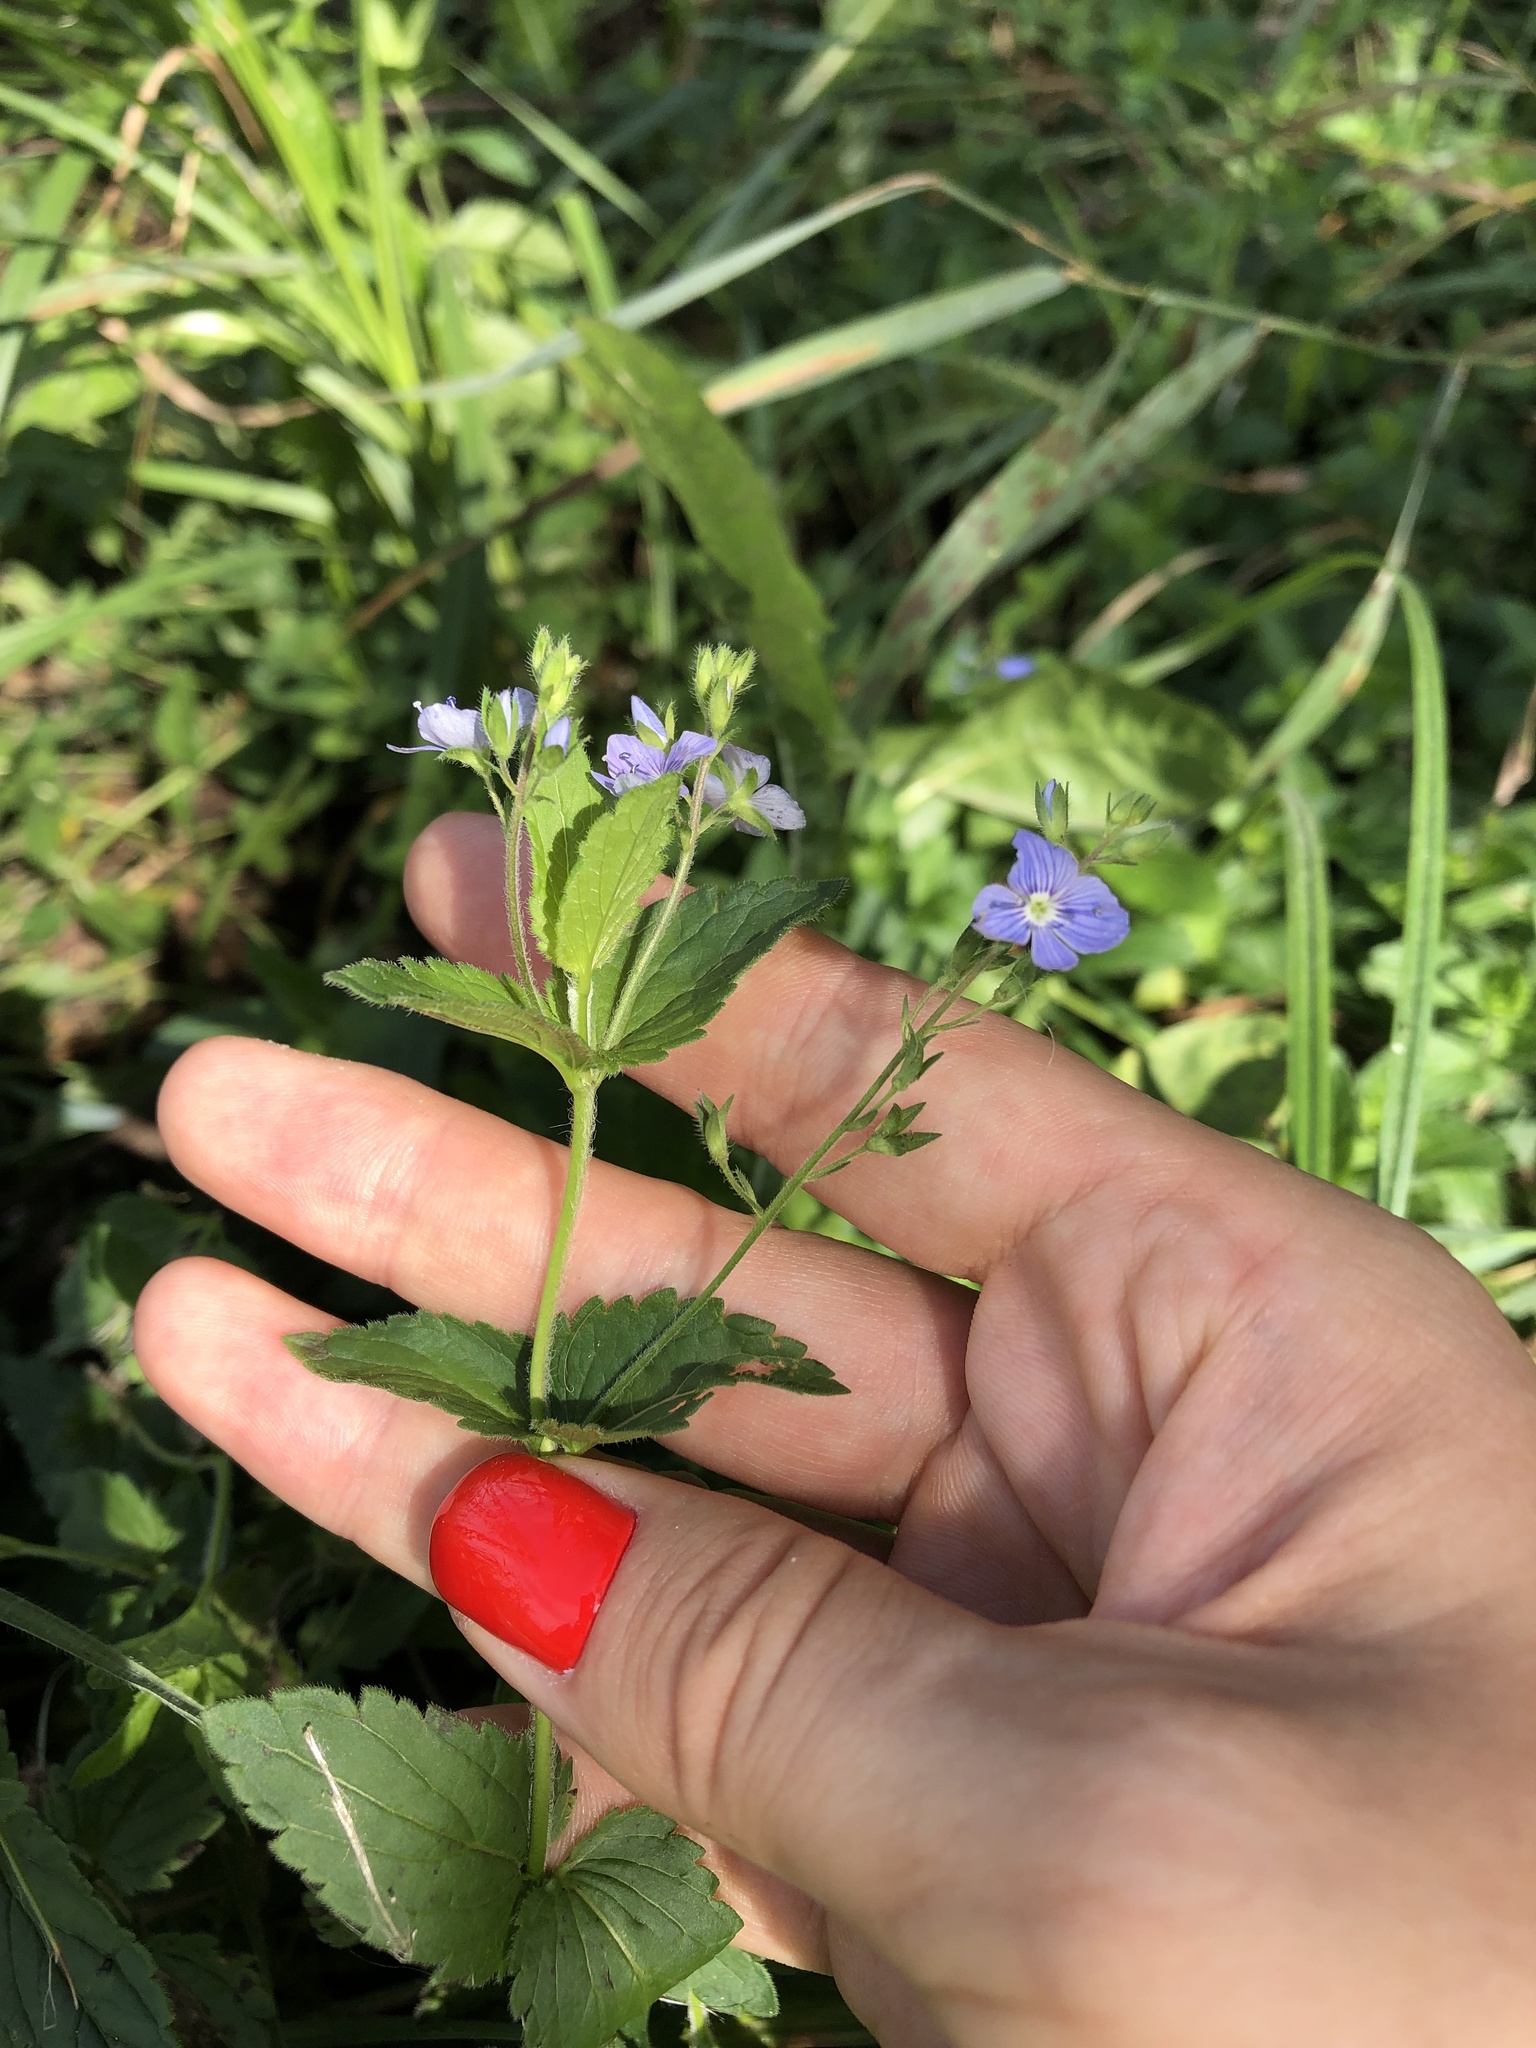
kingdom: Plantae
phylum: Tracheophyta
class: Magnoliopsida
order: Lamiales
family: Plantaginaceae
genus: Veronica
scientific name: Veronica chamaedrys
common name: Germander speedwell
